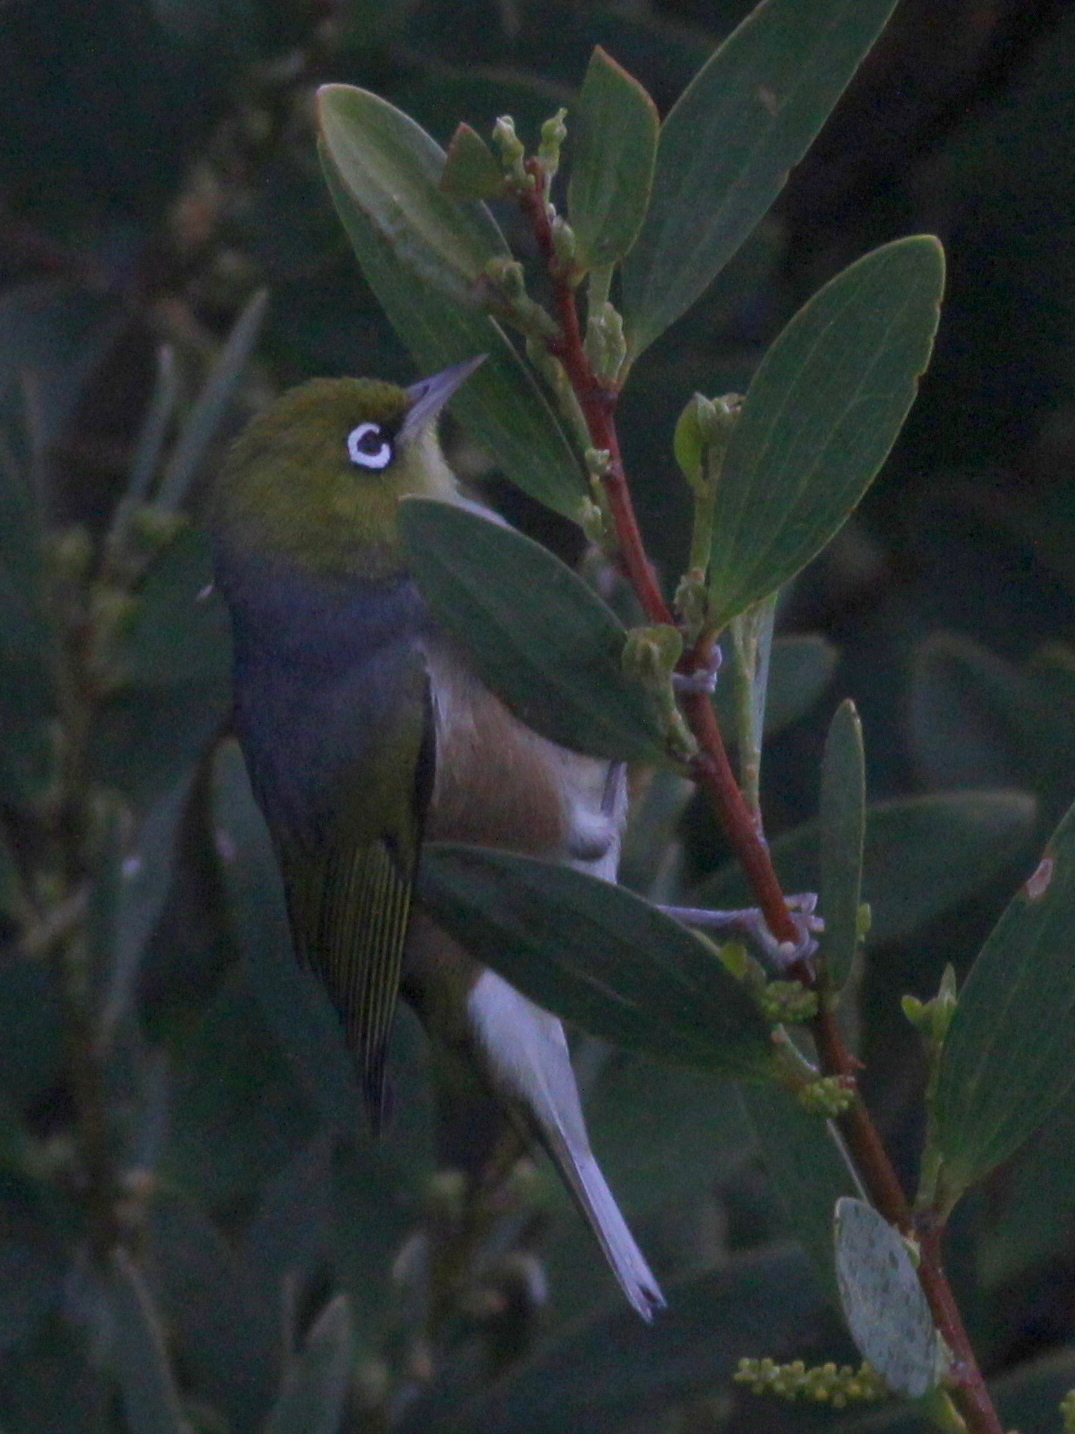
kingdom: Animalia
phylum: Chordata
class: Aves
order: Passeriformes
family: Zosteropidae
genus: Zosterops
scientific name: Zosterops lateralis
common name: Silvereye
